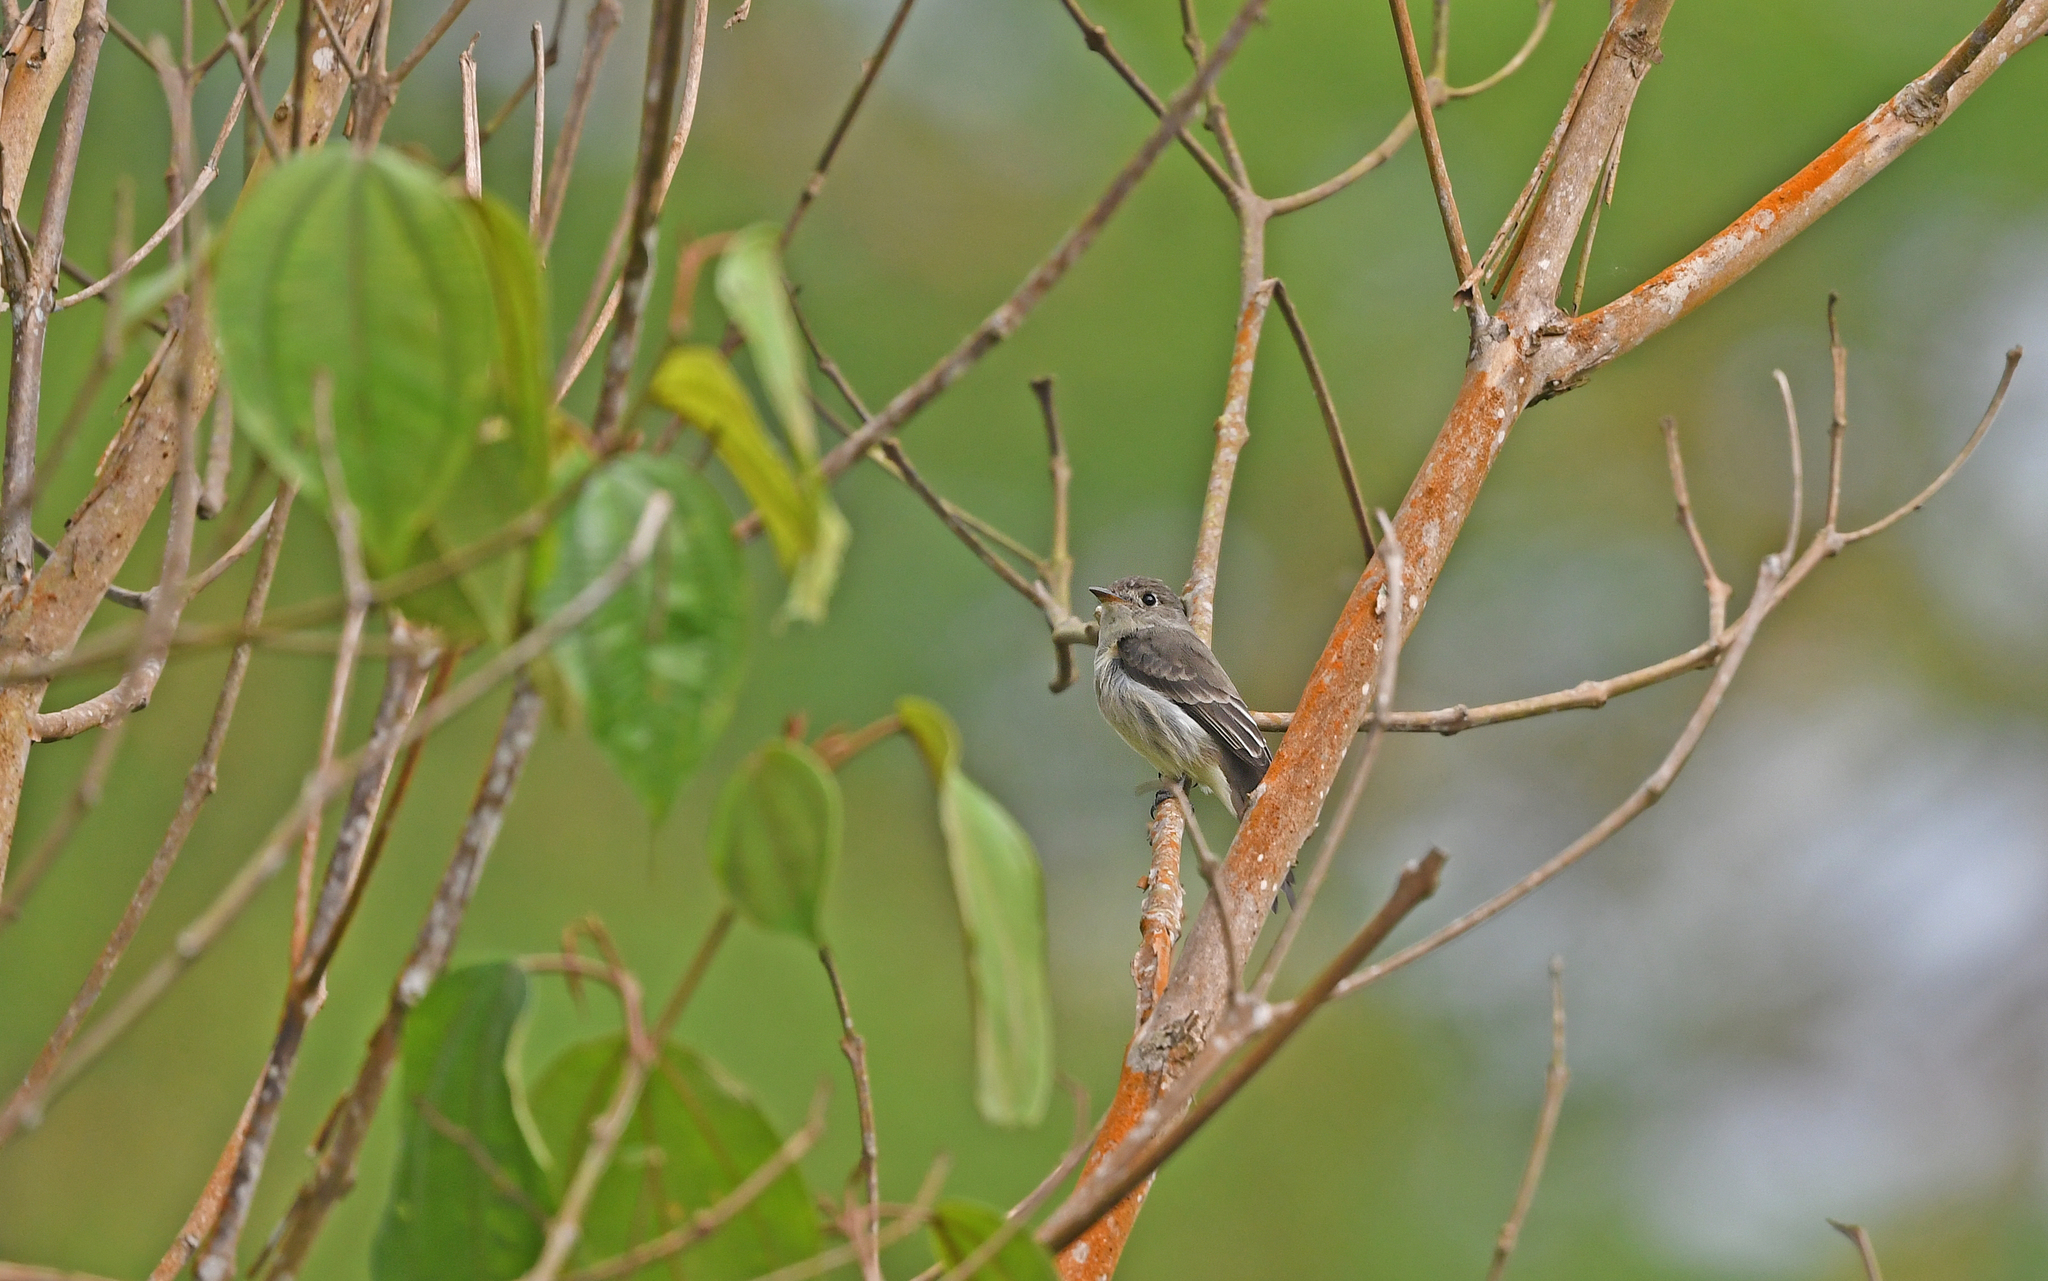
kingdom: Animalia
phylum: Chordata
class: Aves
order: Passeriformes
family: Tyrannidae
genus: Contopus
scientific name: Contopus cinereus
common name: Tropical pewee
